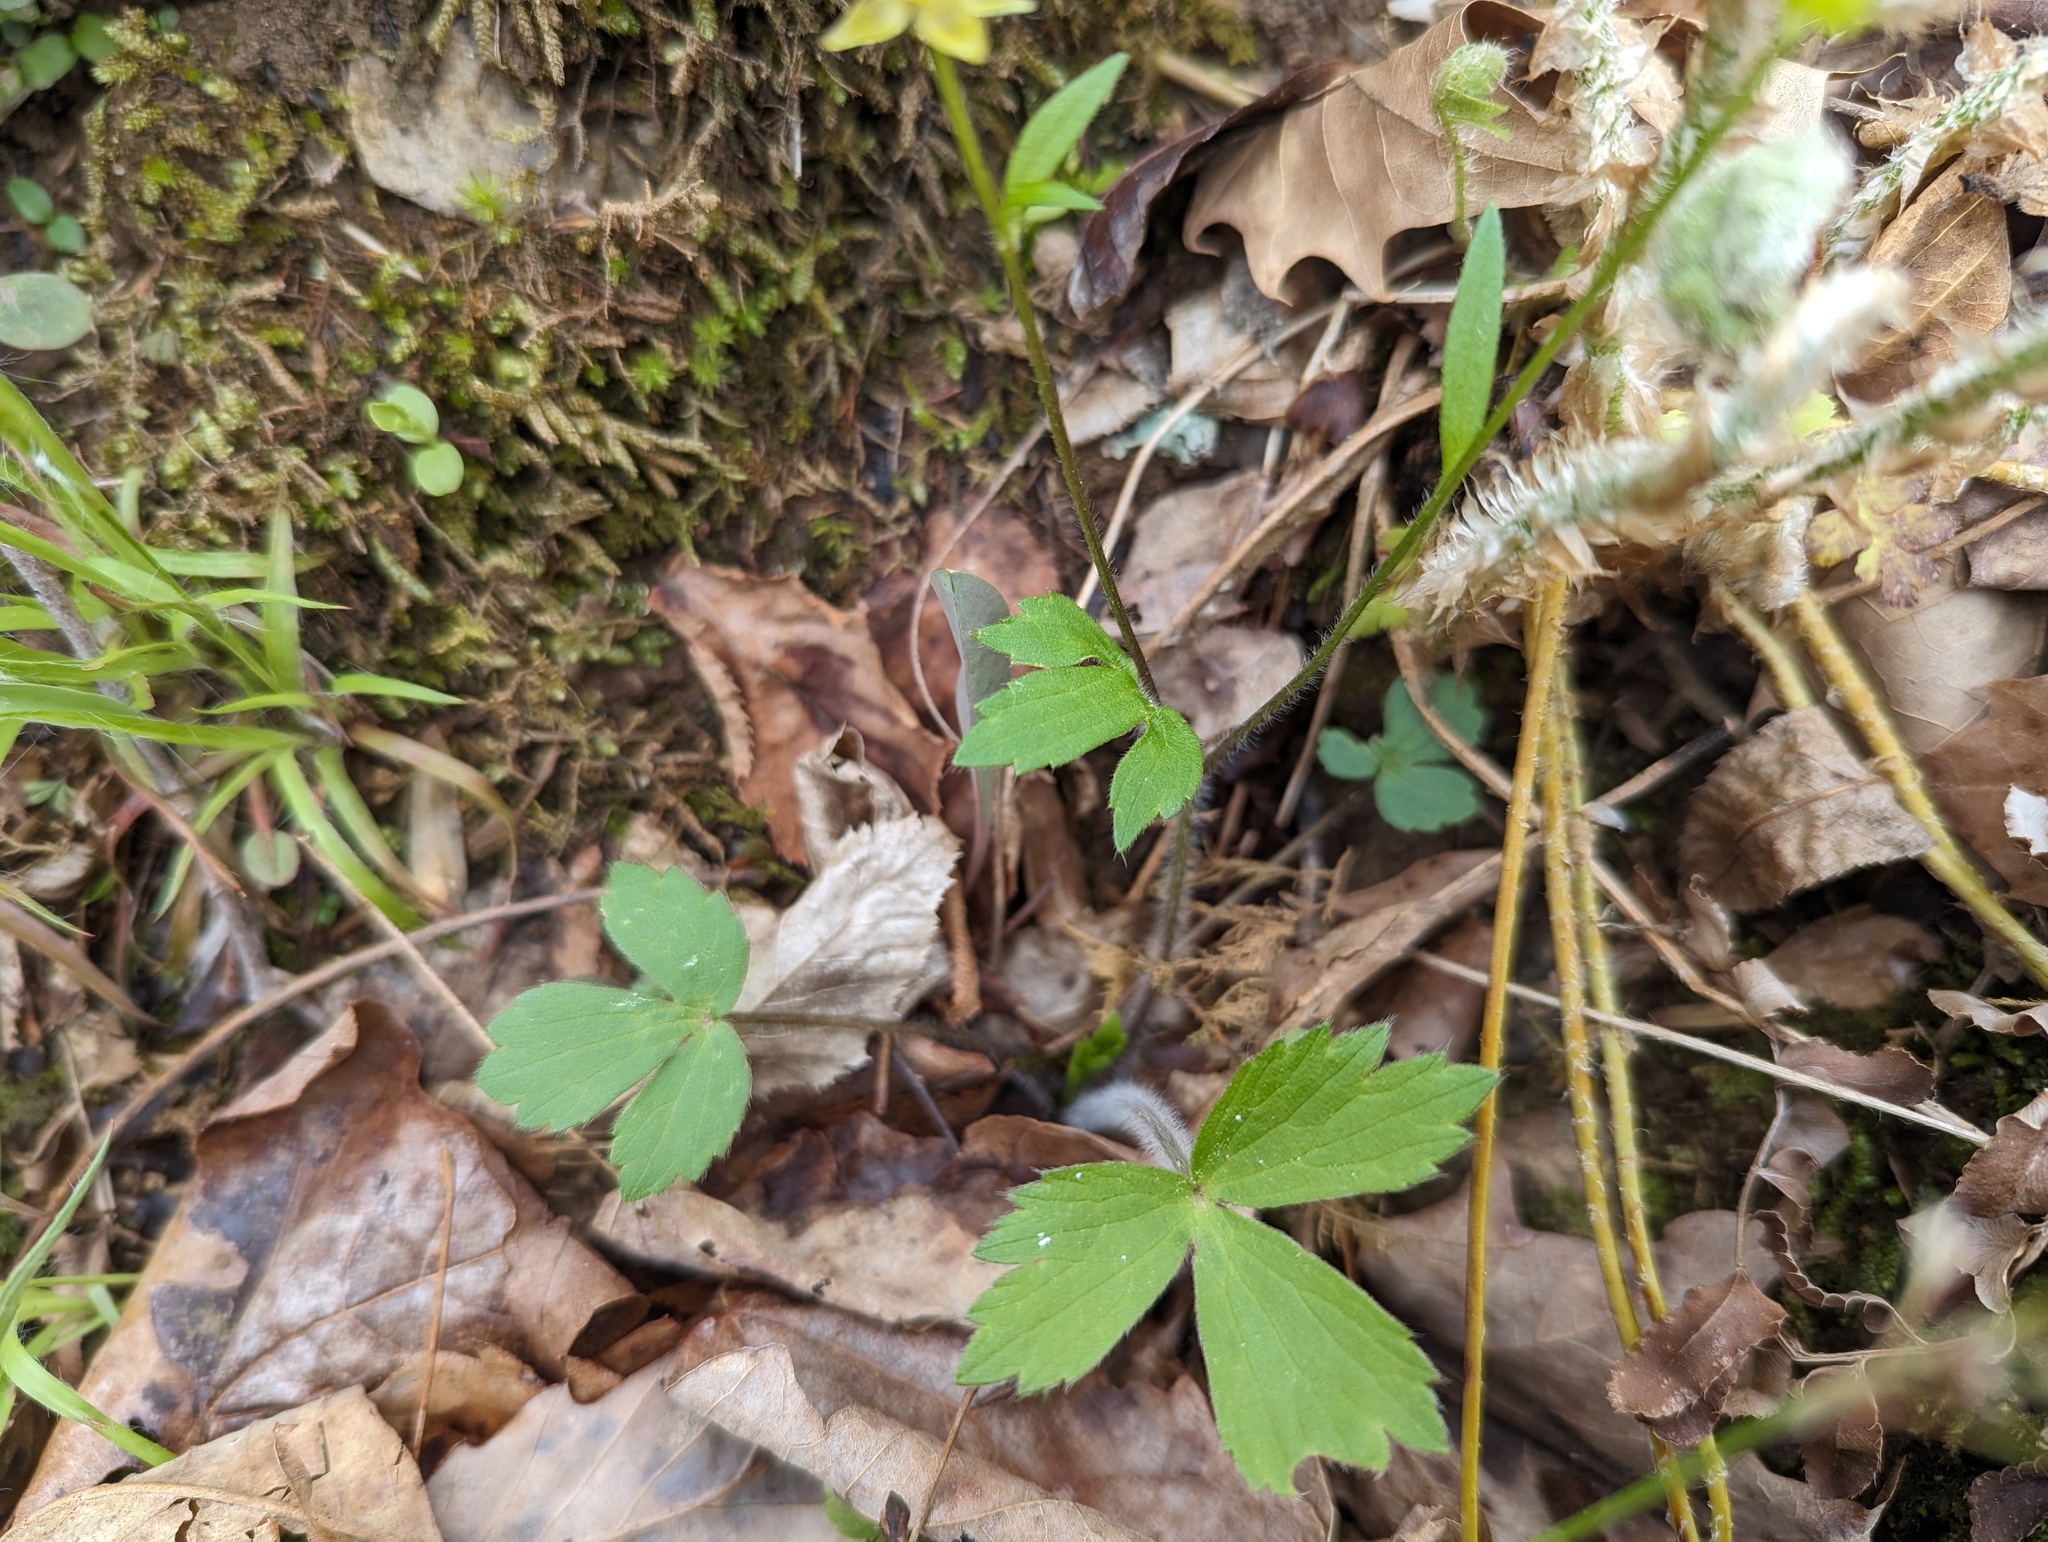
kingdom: Plantae
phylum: Tracheophyta
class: Magnoliopsida
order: Ranunculales
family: Ranunculaceae
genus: Ranunculus
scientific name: Ranunculus hispidus
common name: Bristly buttercup
